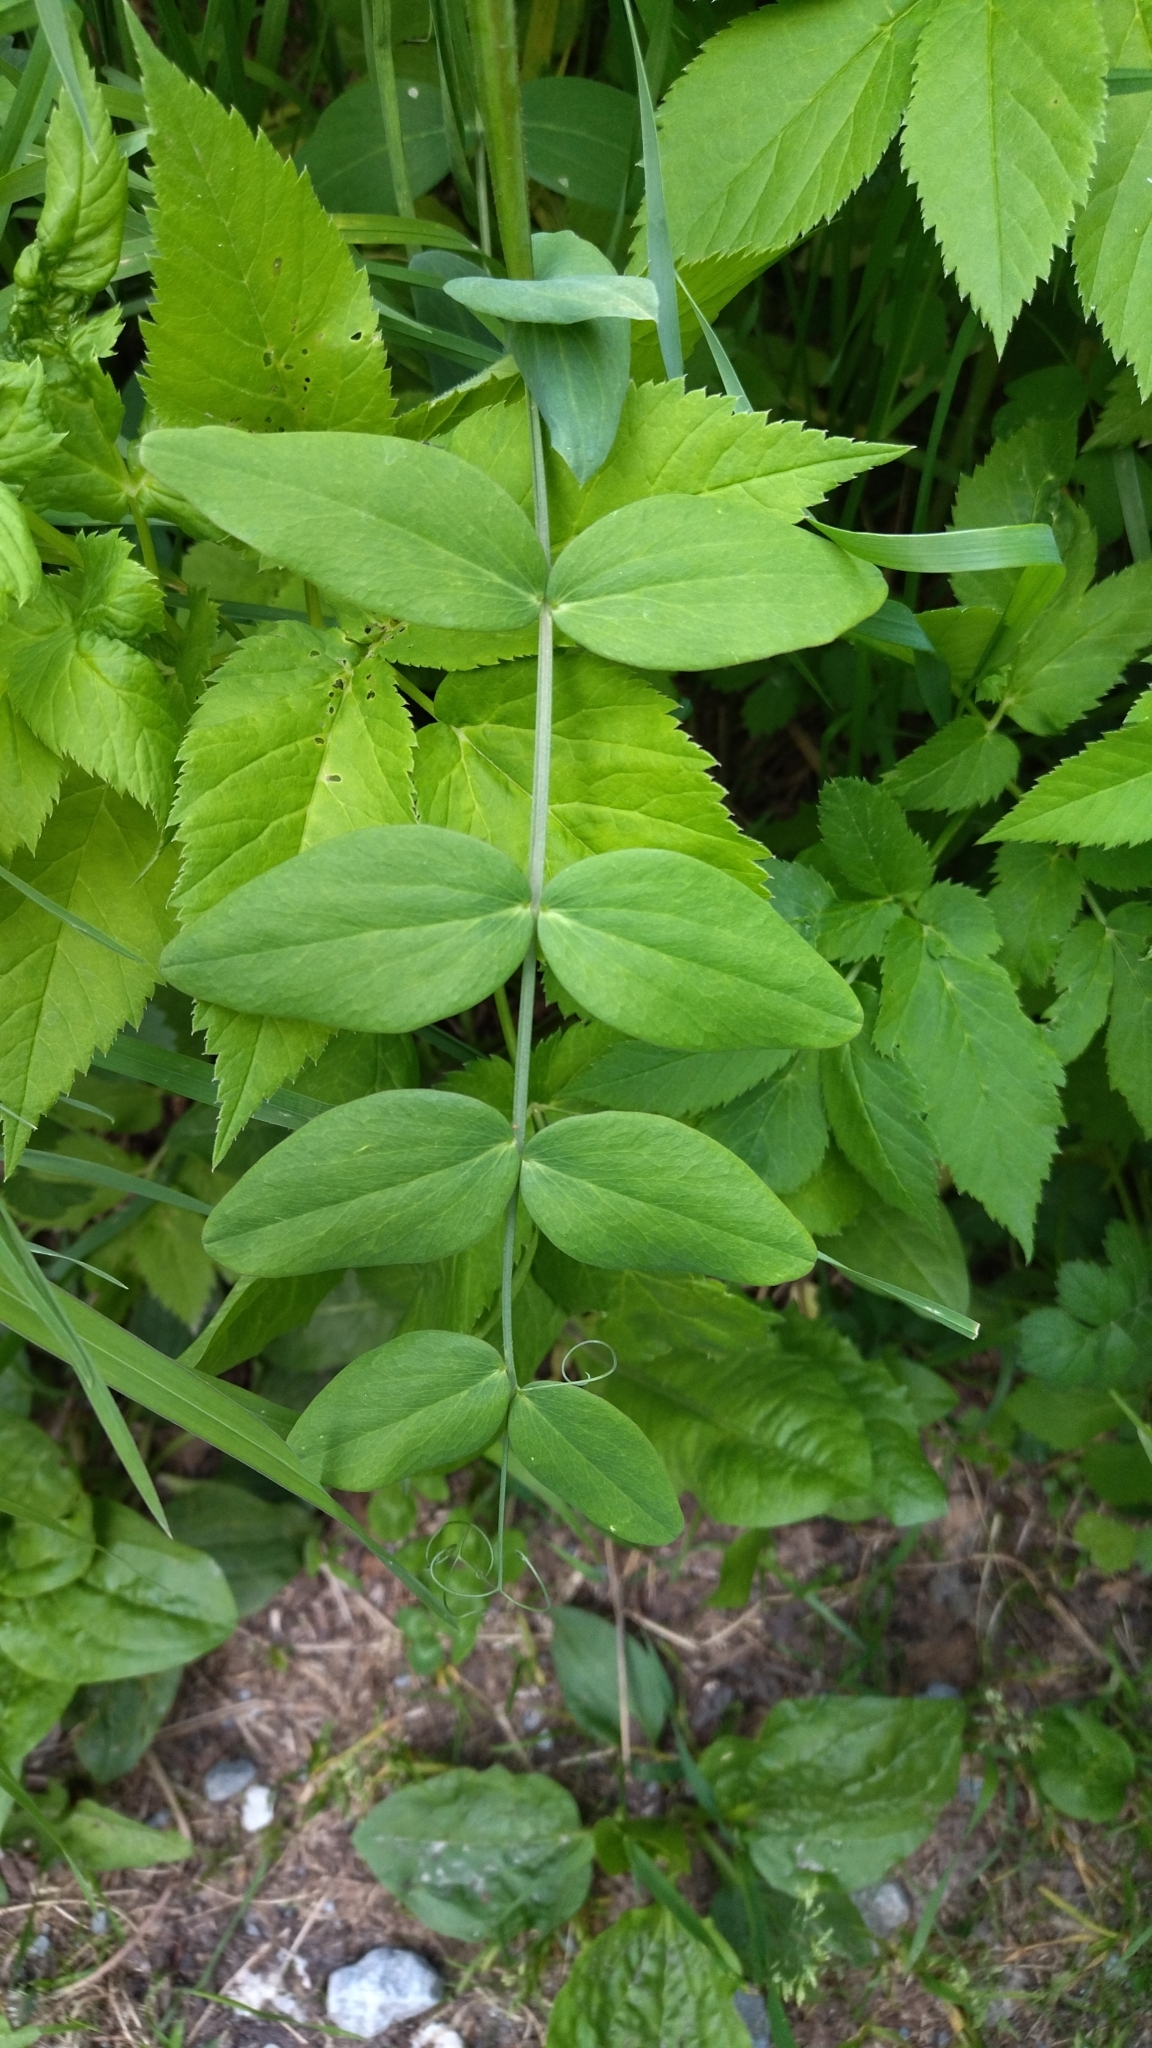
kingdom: Plantae
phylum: Tracheophyta
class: Magnoliopsida
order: Fabales
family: Fabaceae
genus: Lathyrus
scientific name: Lathyrus pisiformis
